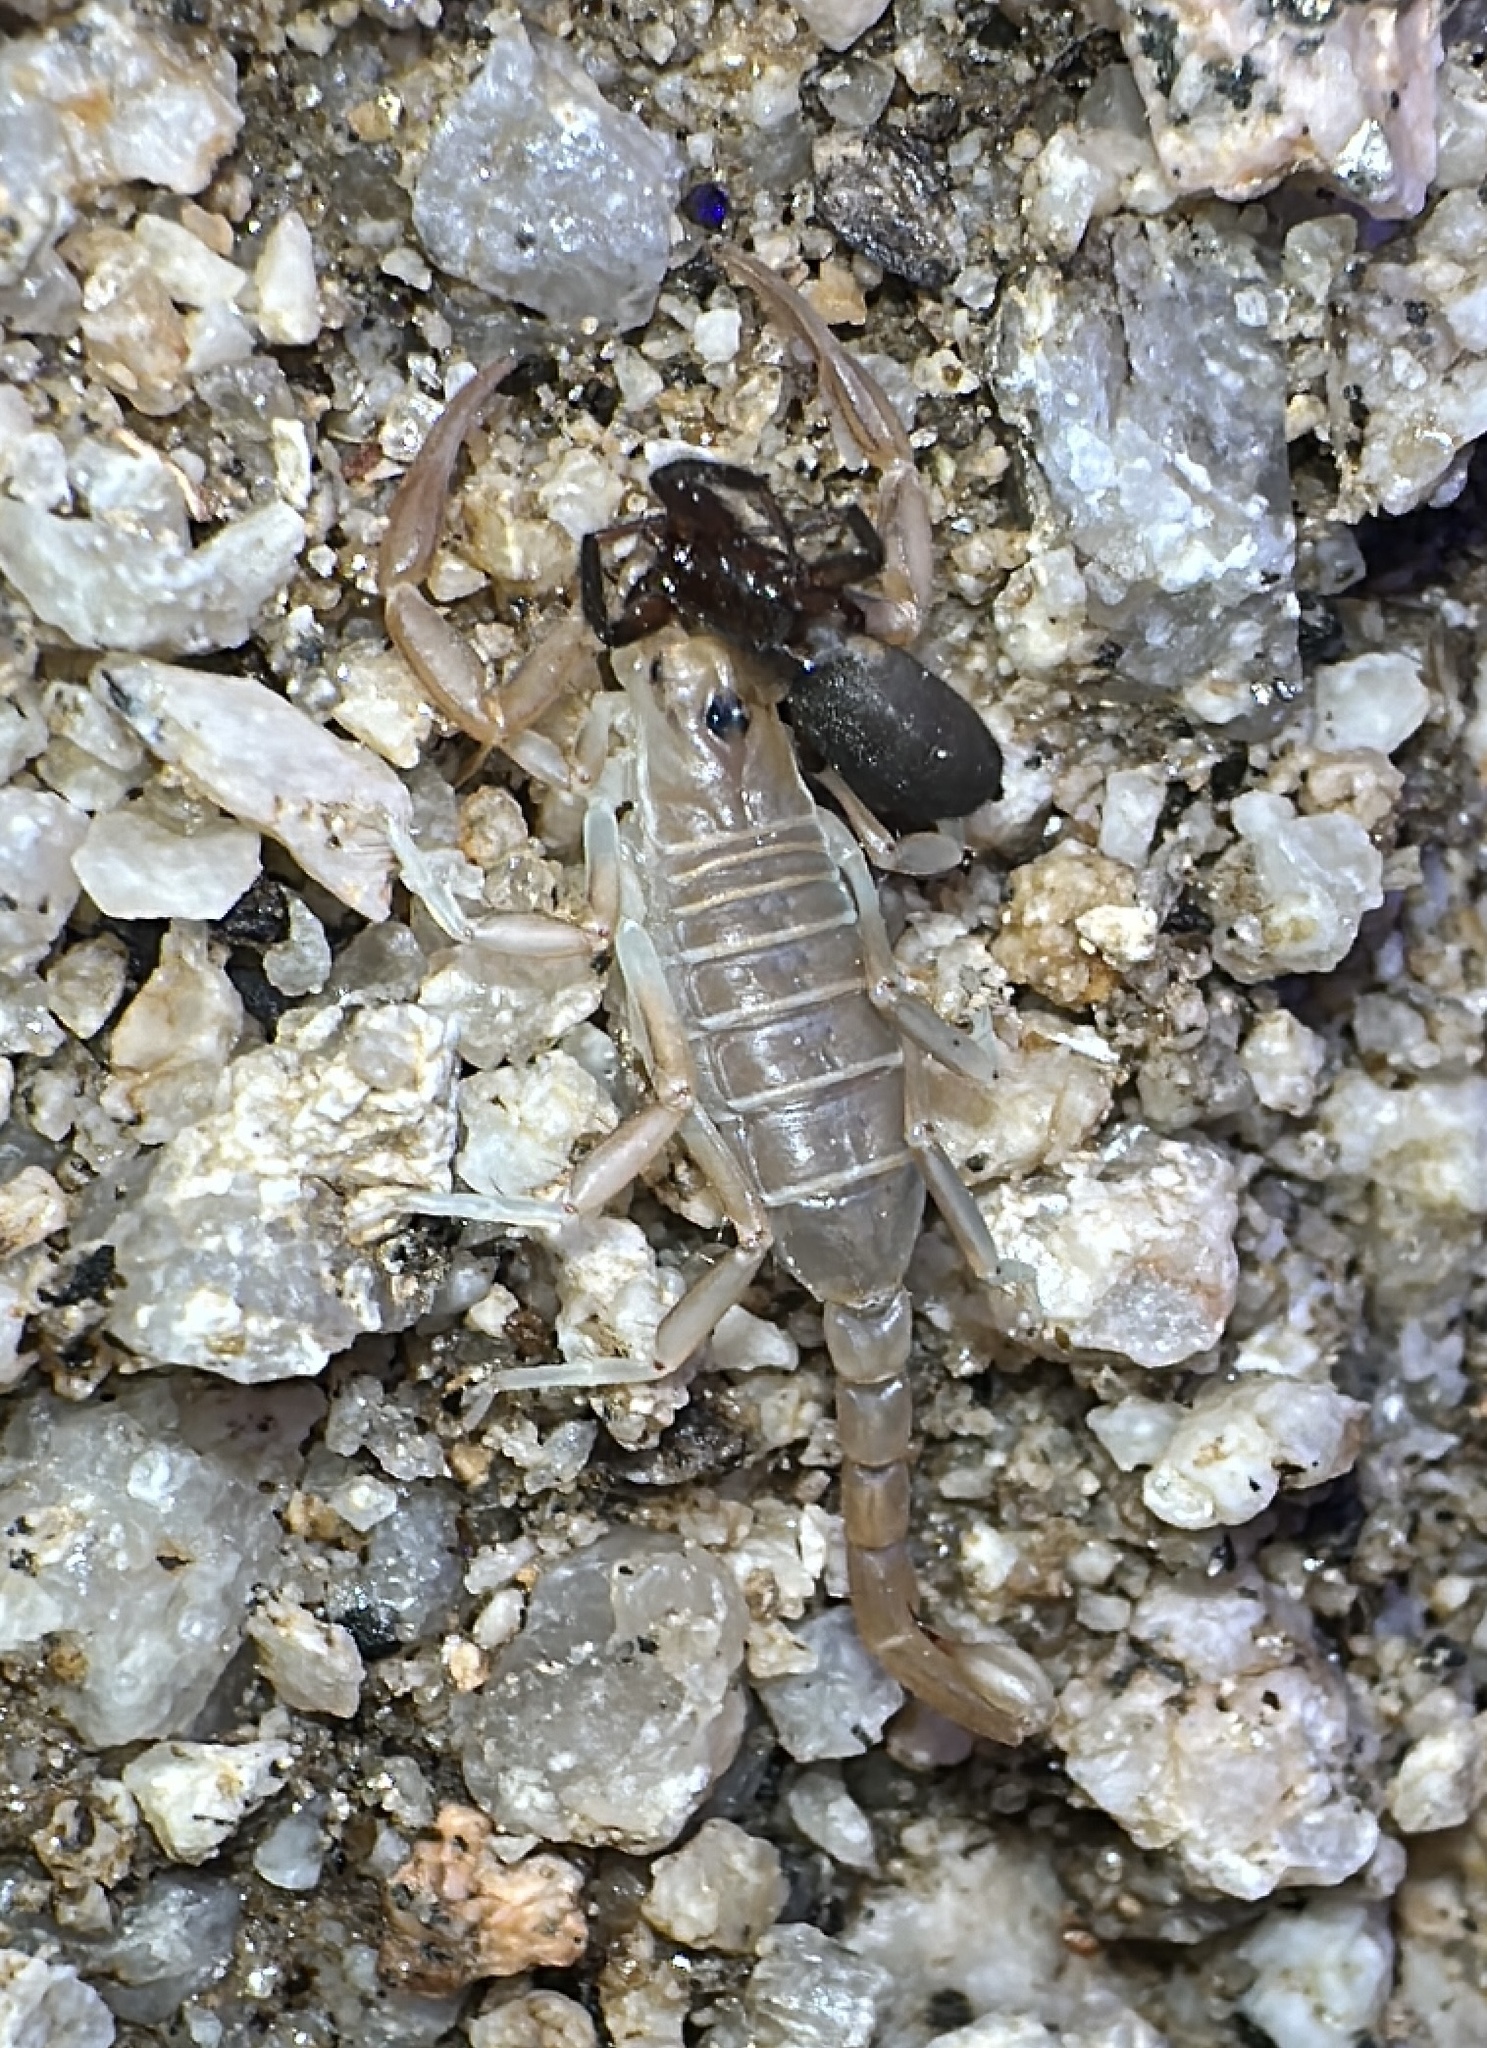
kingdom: Animalia
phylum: Arthropoda
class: Arachnida
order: Scorpiones
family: Vaejovidae
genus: Paruroctonus
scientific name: Paruroctonus becki
